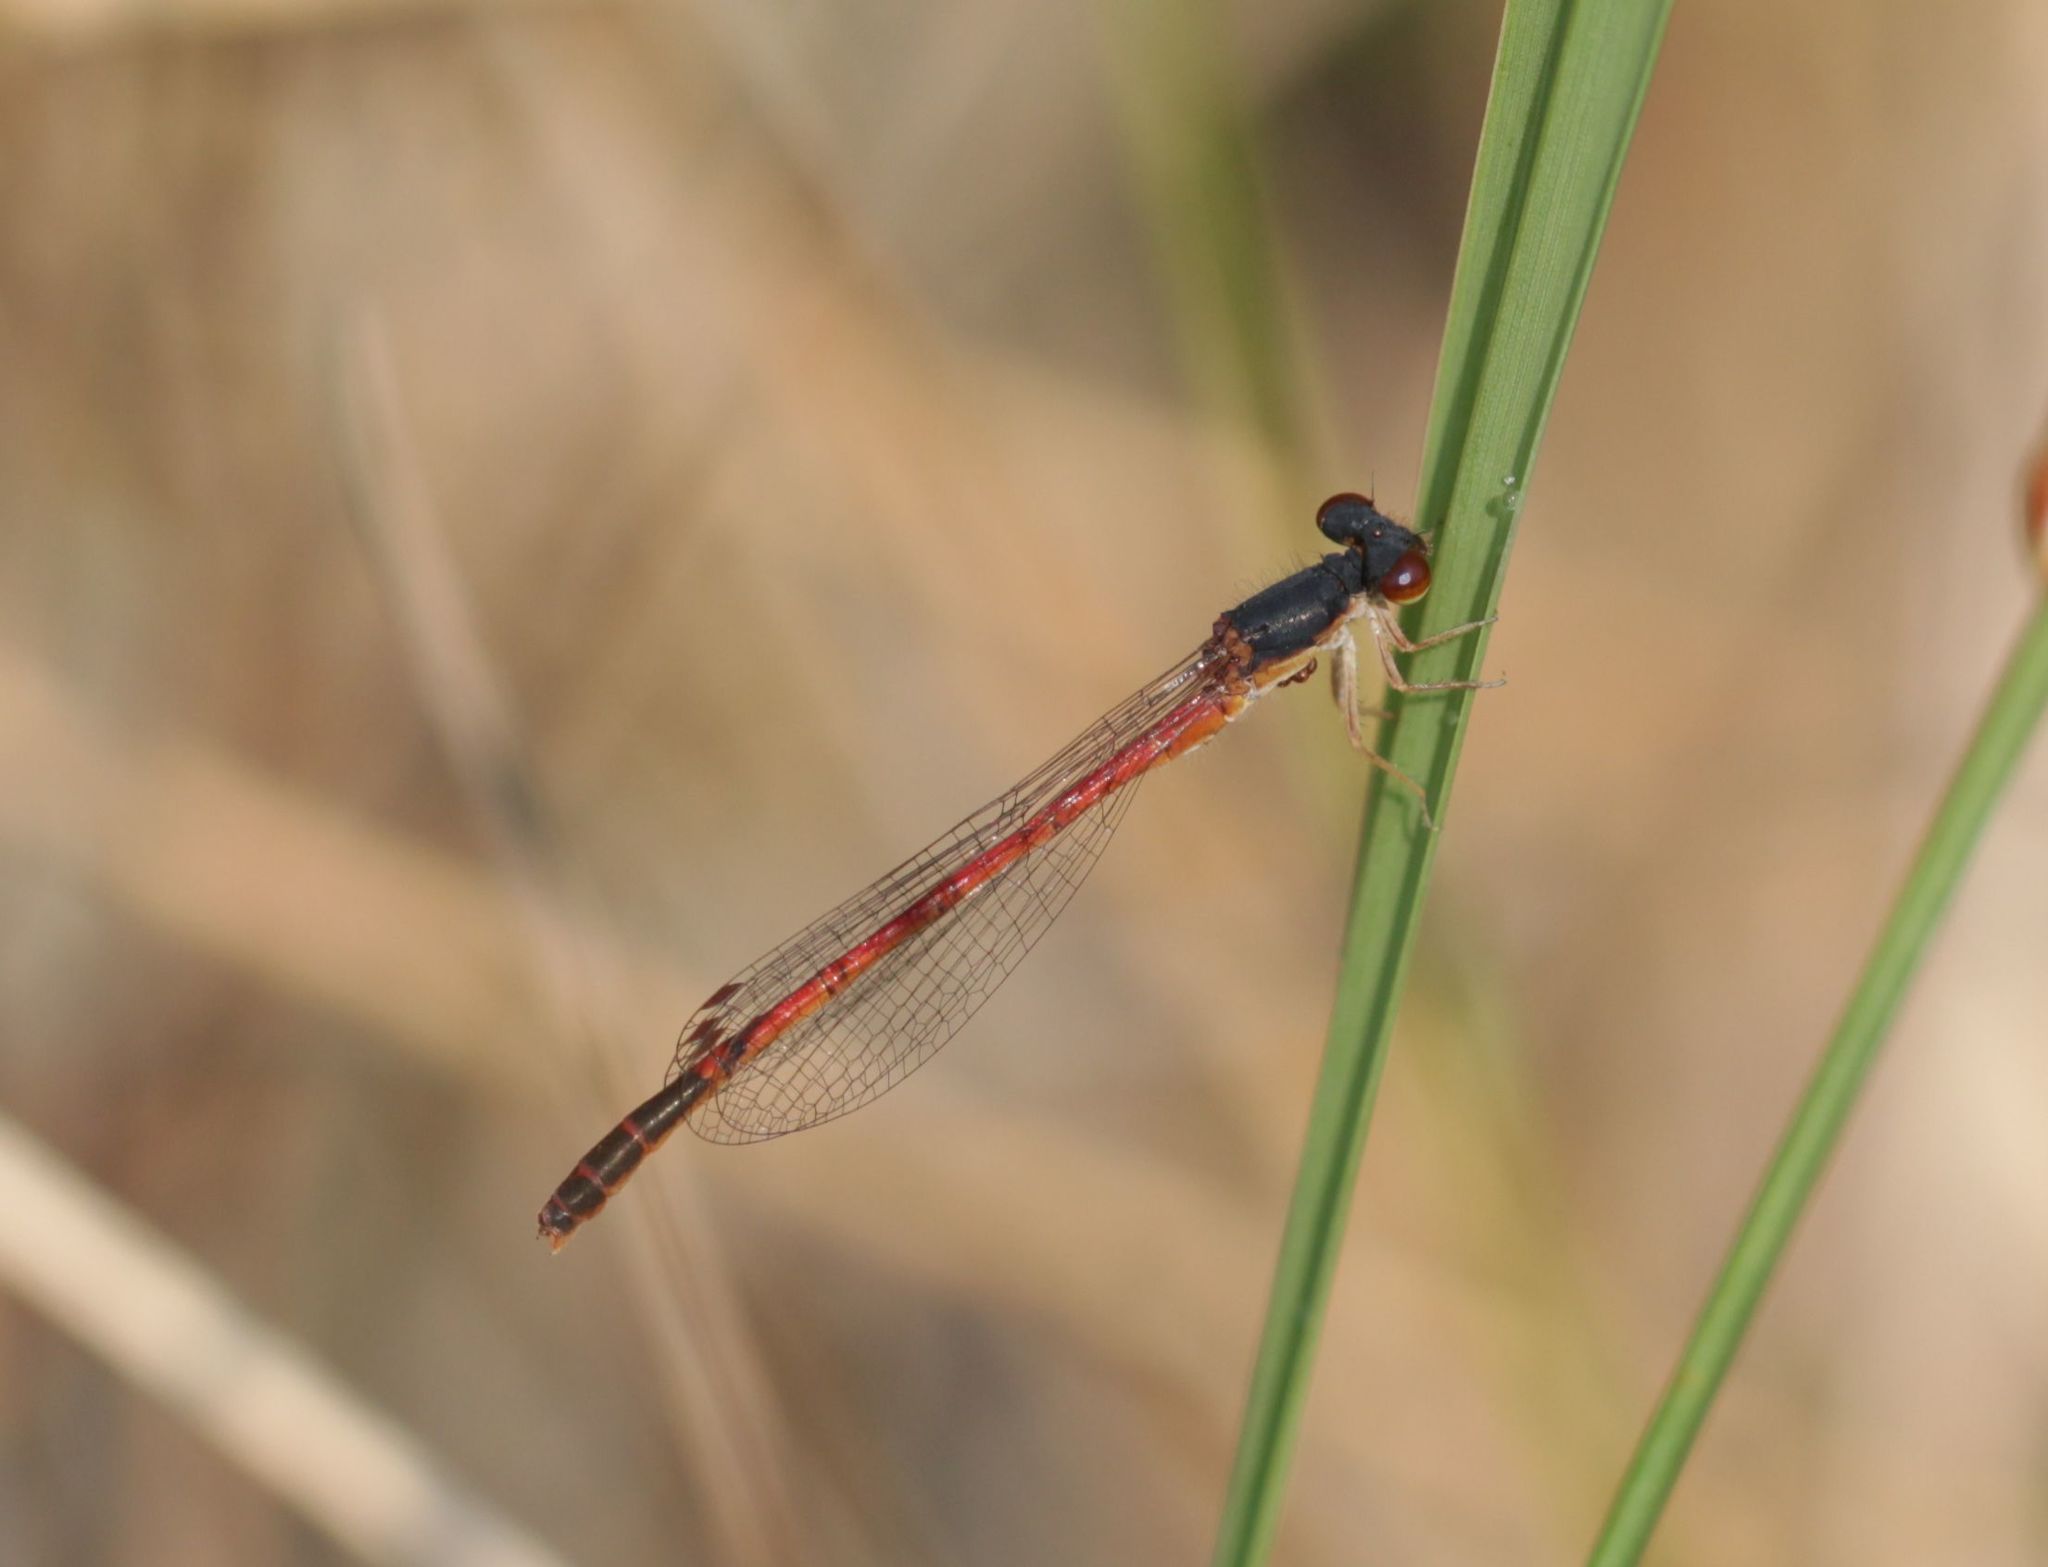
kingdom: Animalia
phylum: Arthropoda
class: Insecta
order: Odonata
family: Coenagrionidae
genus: Amphiagrion
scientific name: Amphiagrion saucium
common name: Eastern red damsel
